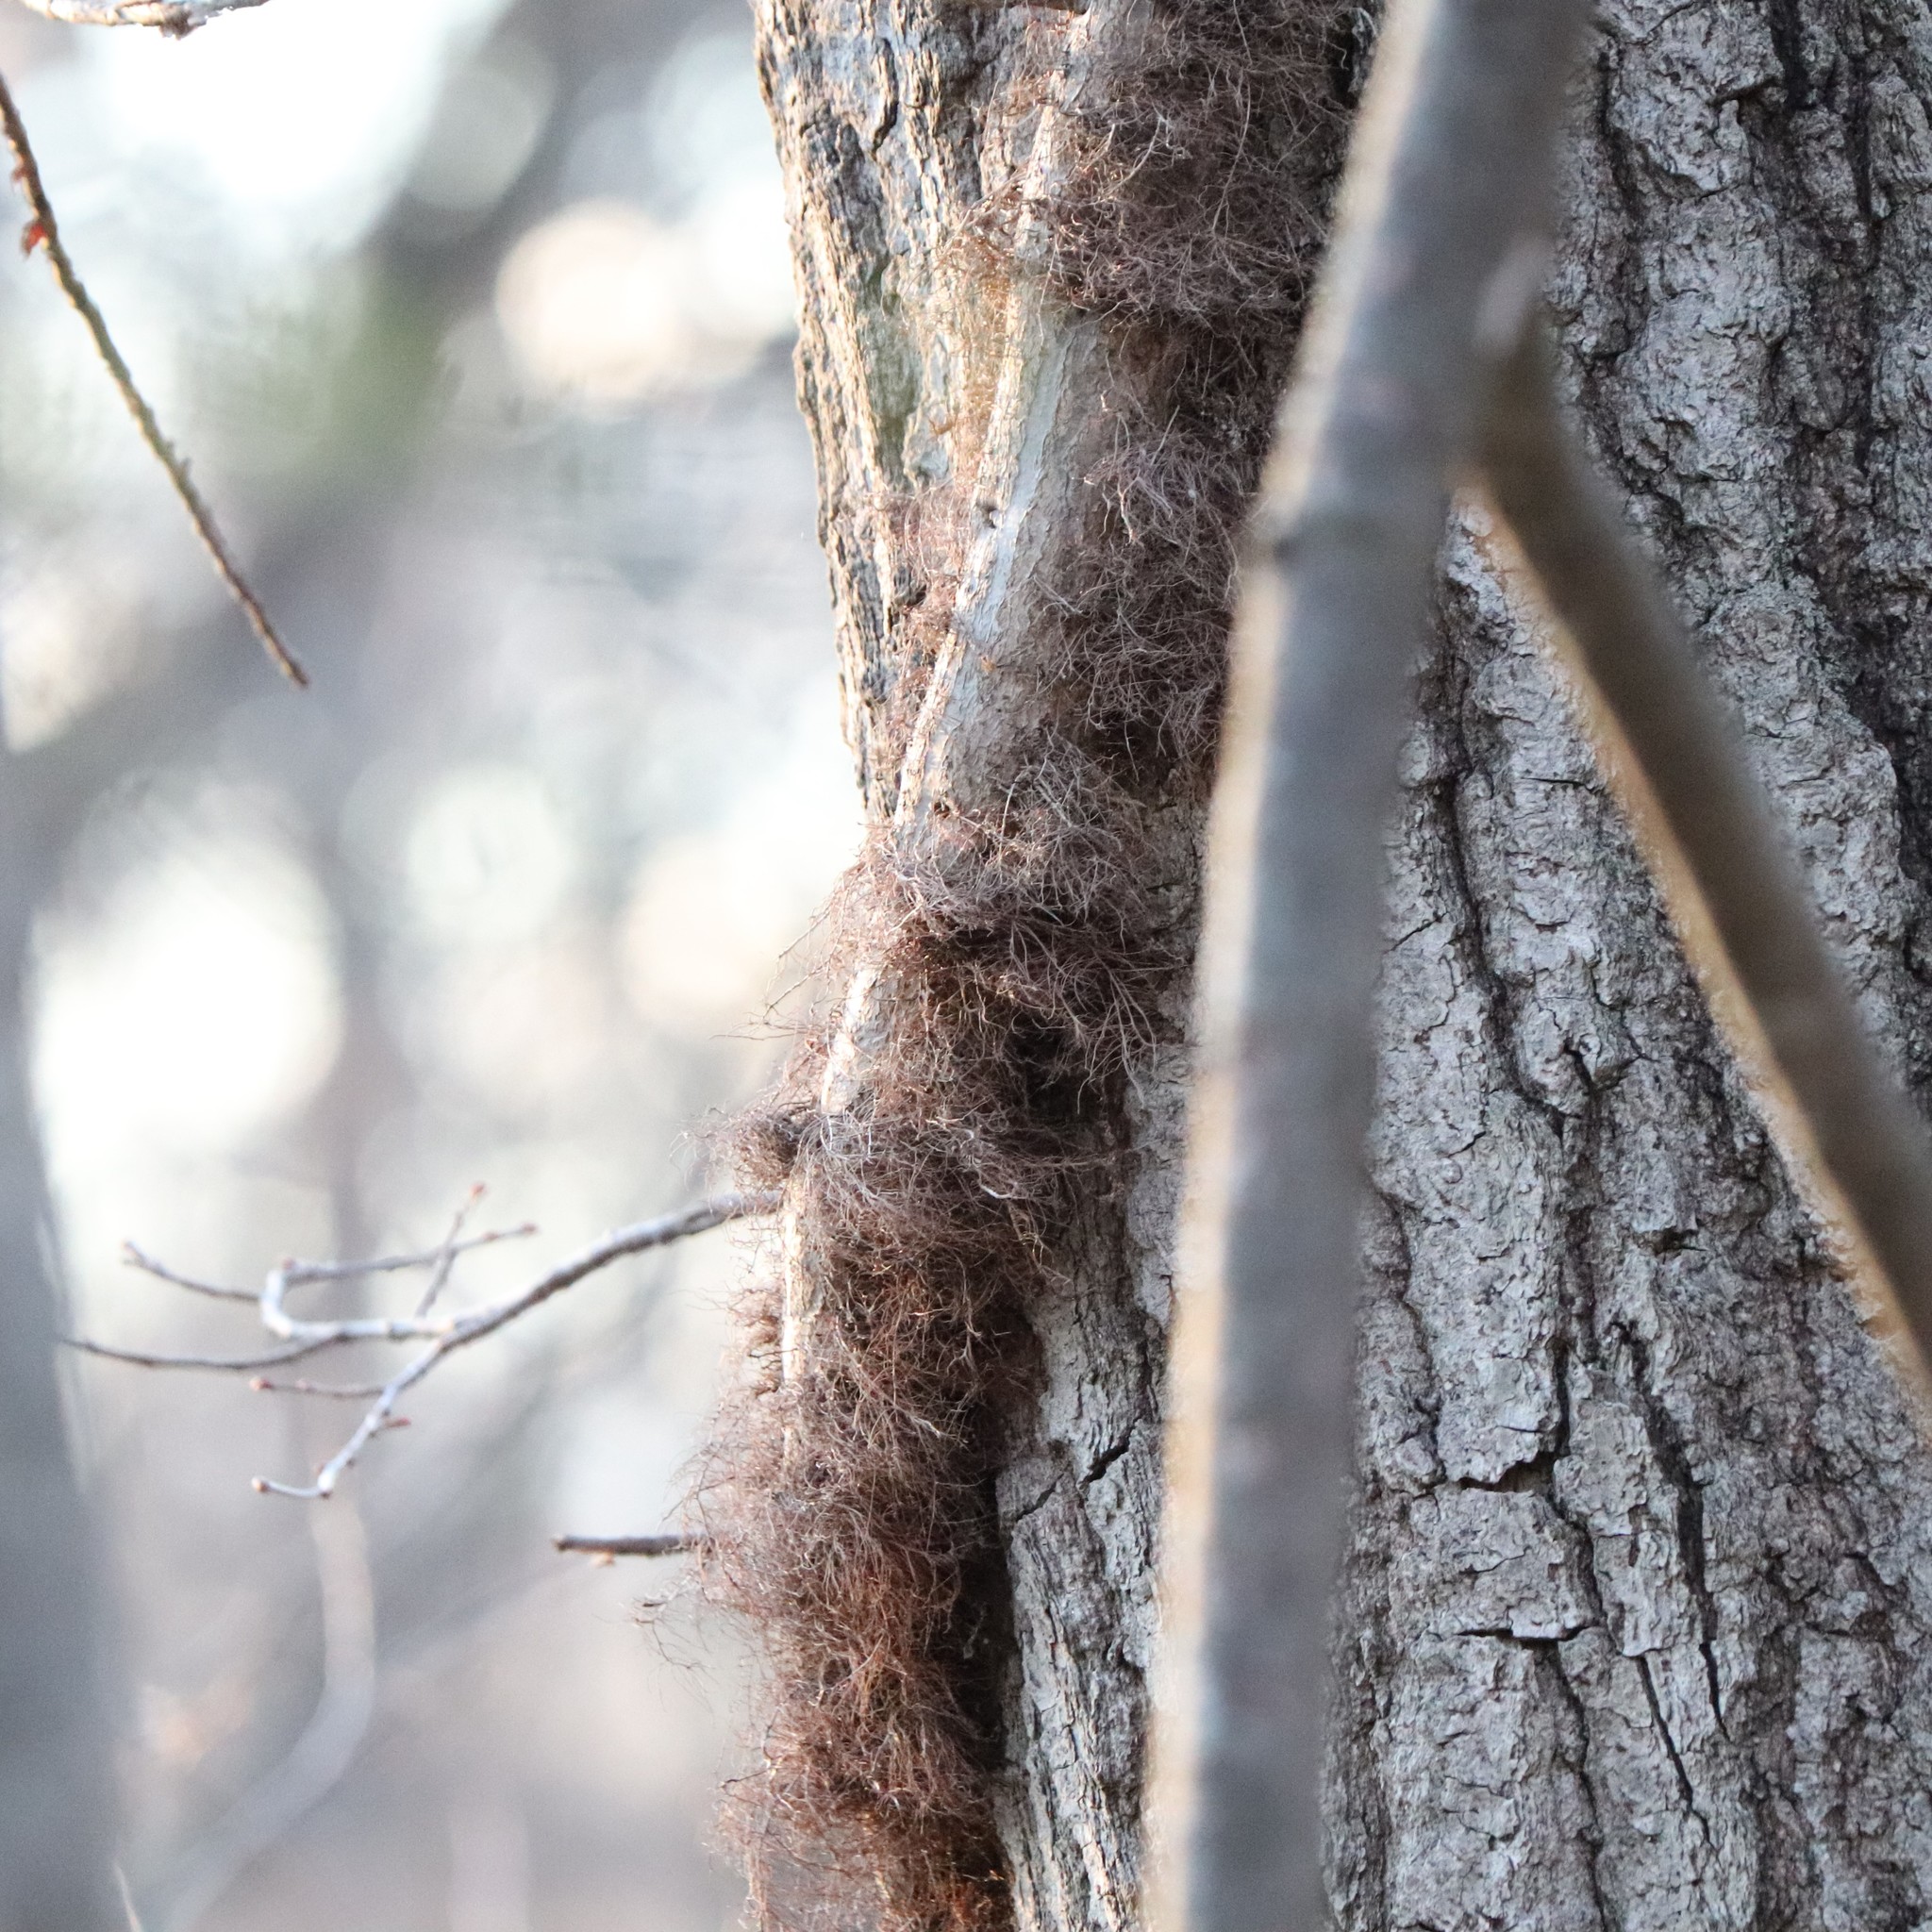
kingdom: Plantae
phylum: Tracheophyta
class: Magnoliopsida
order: Sapindales
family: Anacardiaceae
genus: Toxicodendron
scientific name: Toxicodendron radicans
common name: Poison ivy
